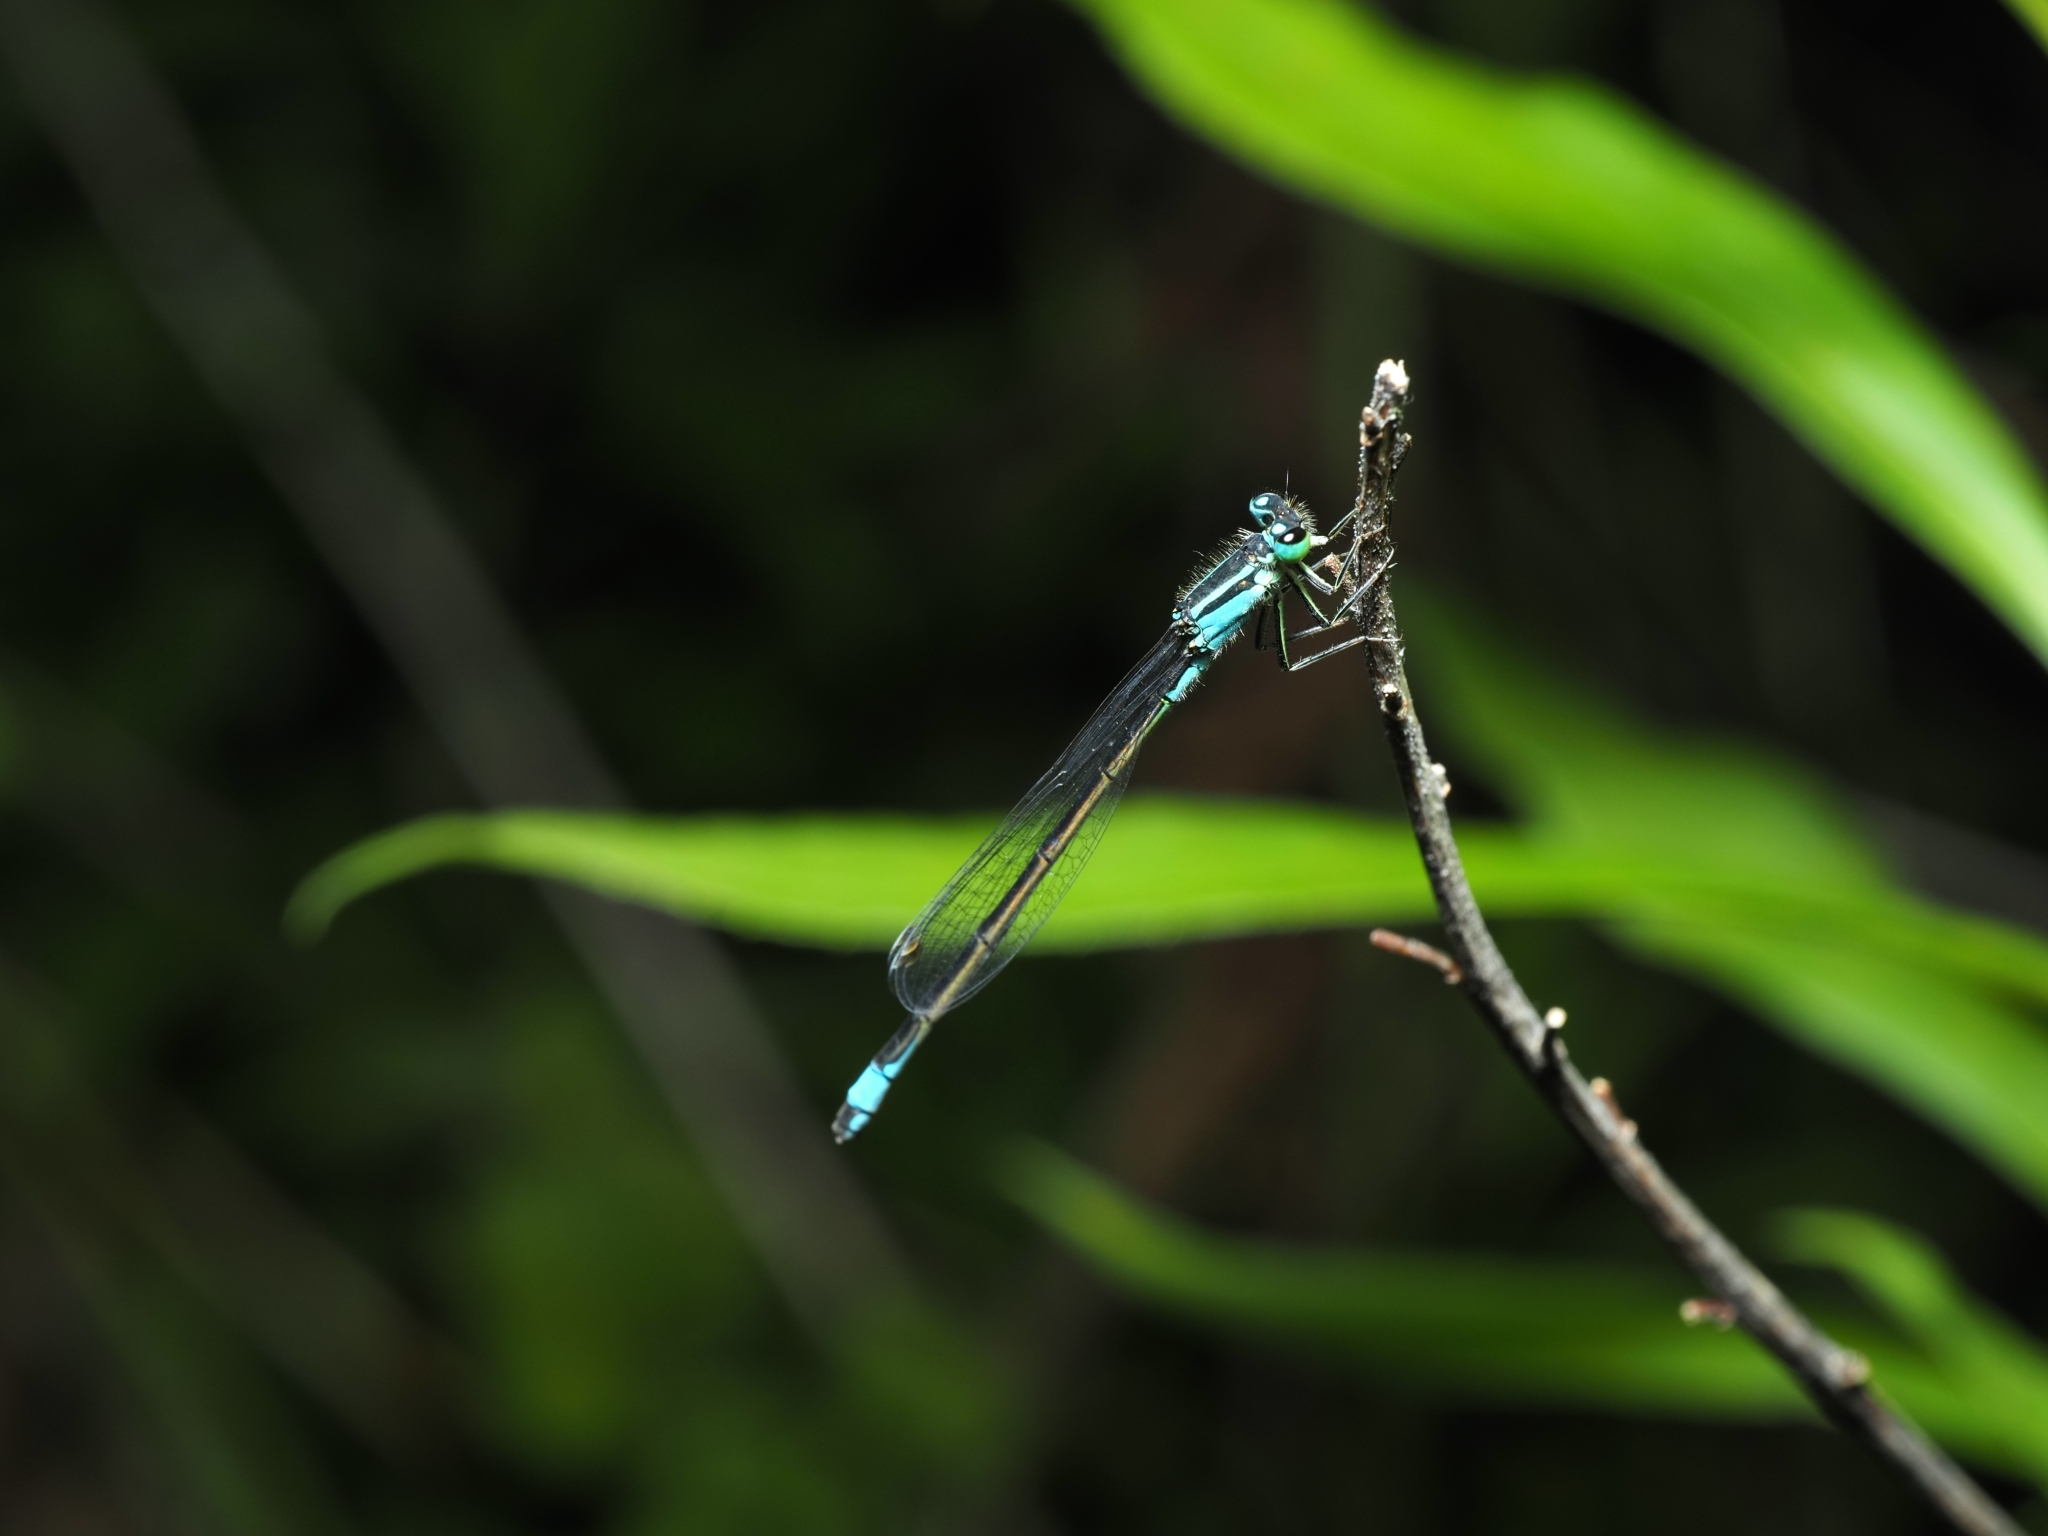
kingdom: Animalia
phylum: Arthropoda
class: Insecta
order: Odonata
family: Coenagrionidae
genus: Ischnura
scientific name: Ischnura elegans
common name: Blue-tailed damselfly
